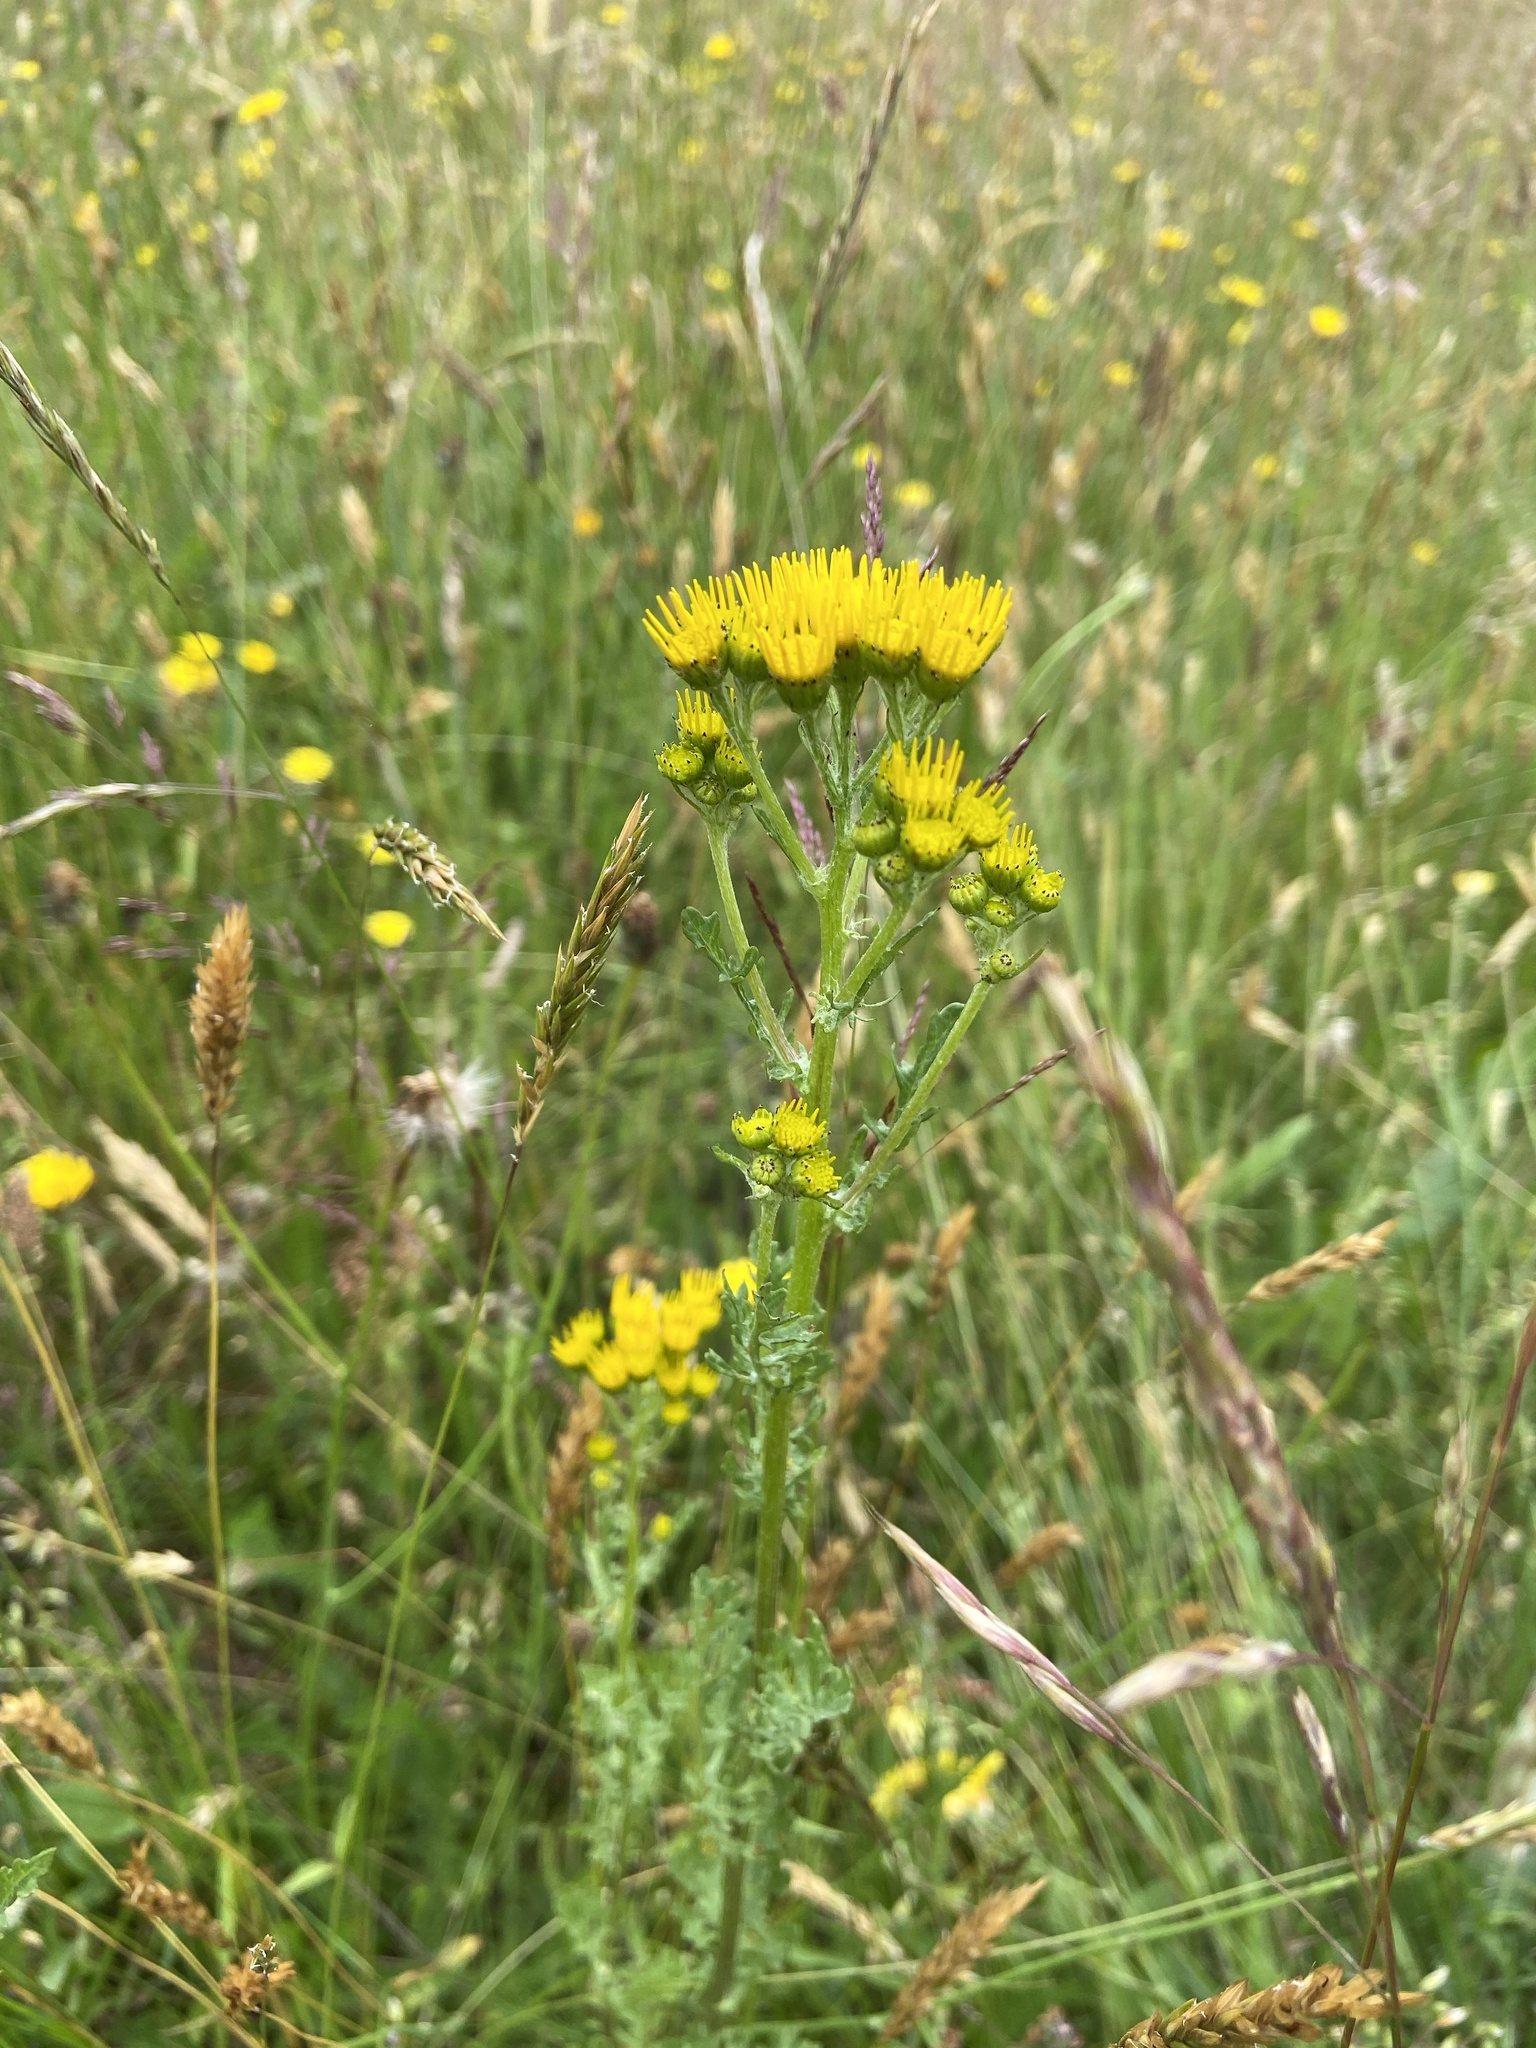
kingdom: Plantae
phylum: Tracheophyta
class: Magnoliopsida
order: Asterales
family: Asteraceae
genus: Jacobaea
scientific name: Jacobaea vulgaris
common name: Stinking willie
